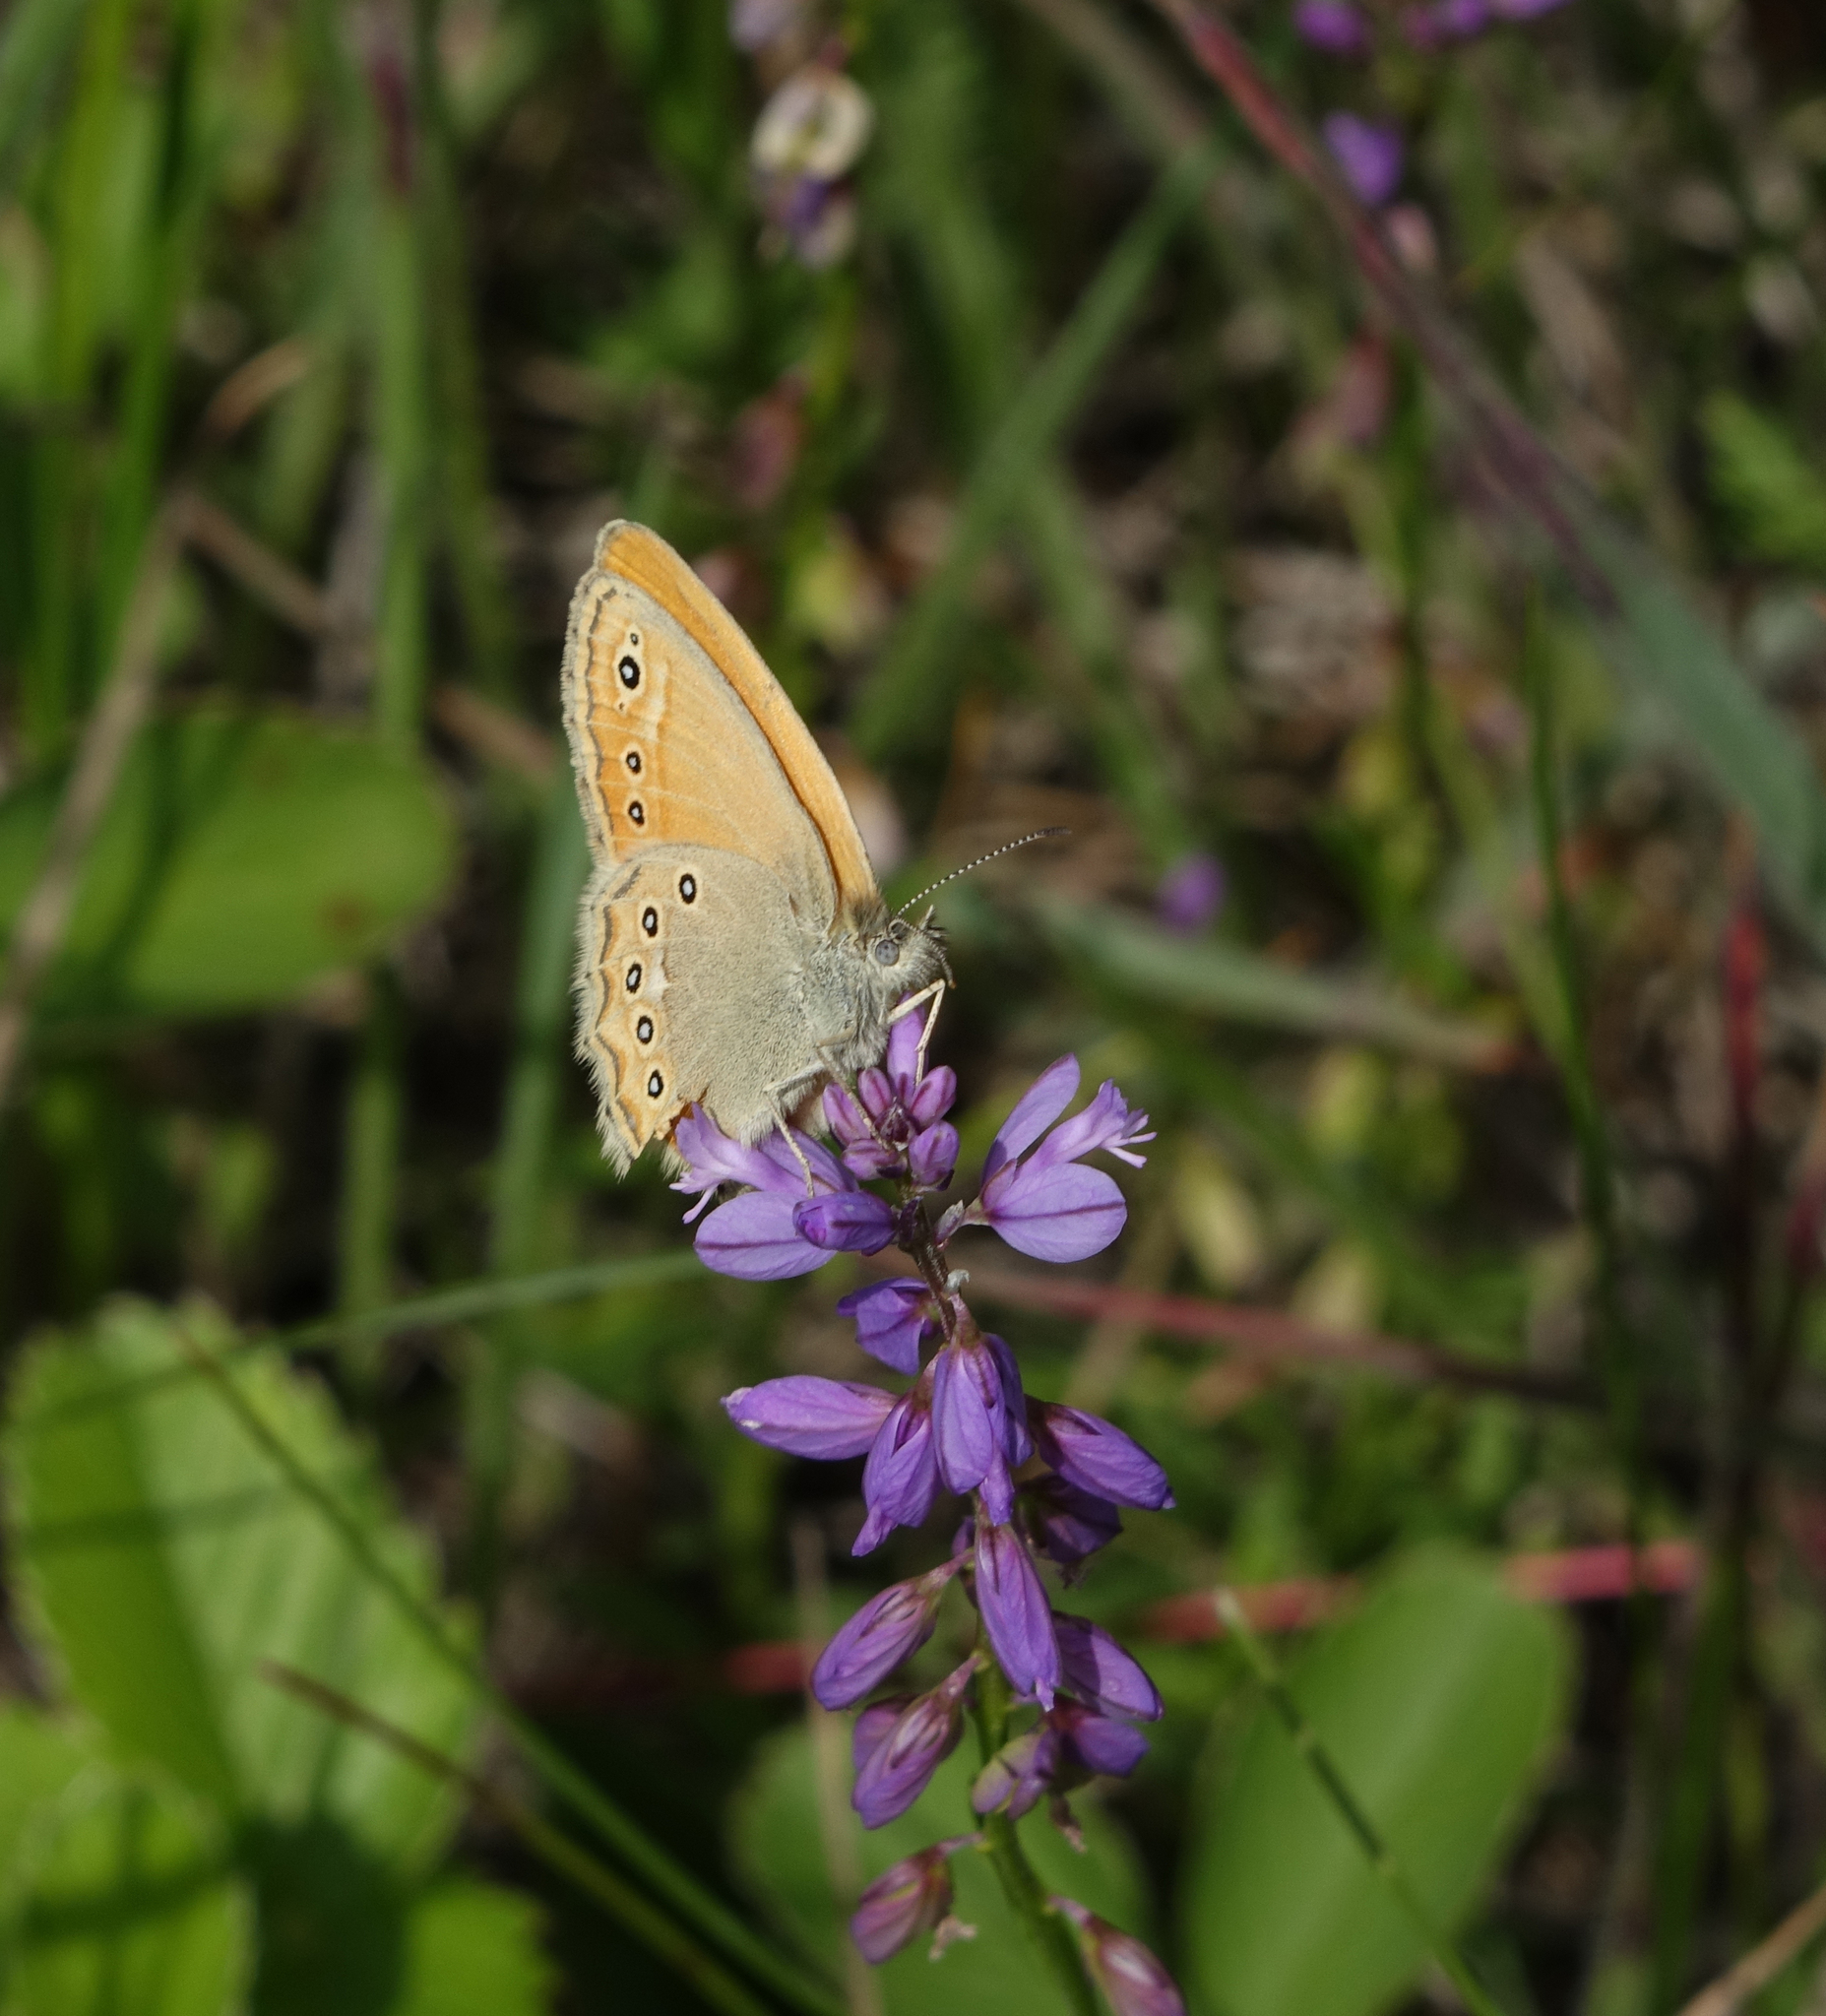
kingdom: Animalia
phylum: Arthropoda
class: Insecta
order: Lepidoptera
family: Nymphalidae
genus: Coenonympha
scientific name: Coenonympha amaryllis
